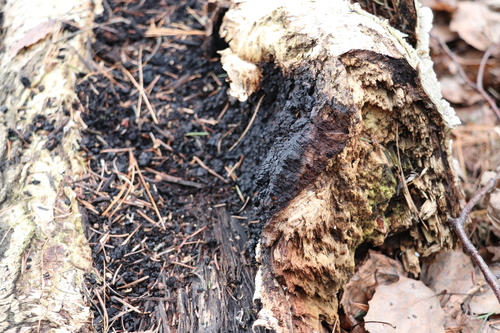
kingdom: Fungi
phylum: Basidiomycota
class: Agaricomycetes
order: Hymenochaetales
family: Hymenochaetaceae
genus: Inonotus
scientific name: Inonotus obliquus
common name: Chaga
